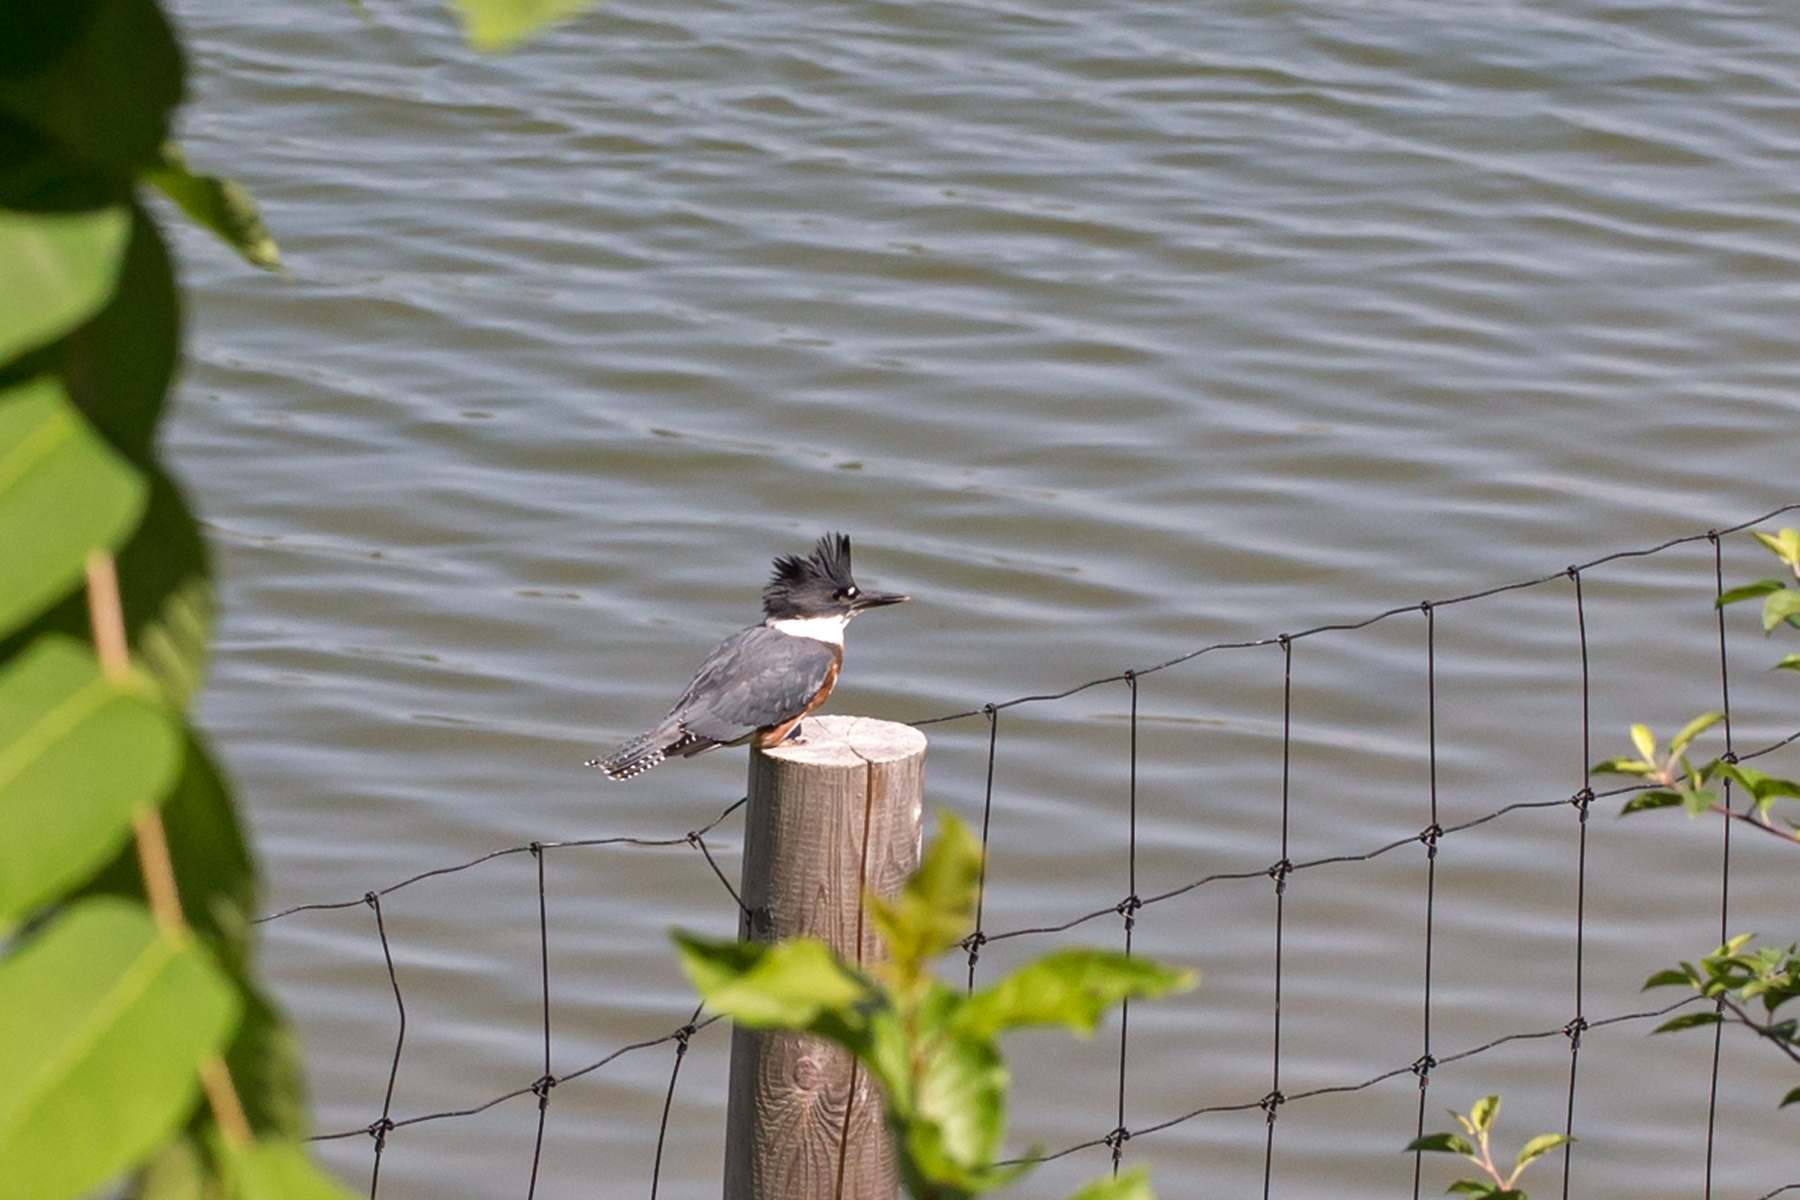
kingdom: Animalia
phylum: Chordata
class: Aves
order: Coraciiformes
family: Alcedinidae
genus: Megaceryle
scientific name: Megaceryle alcyon
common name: Belted kingfisher
